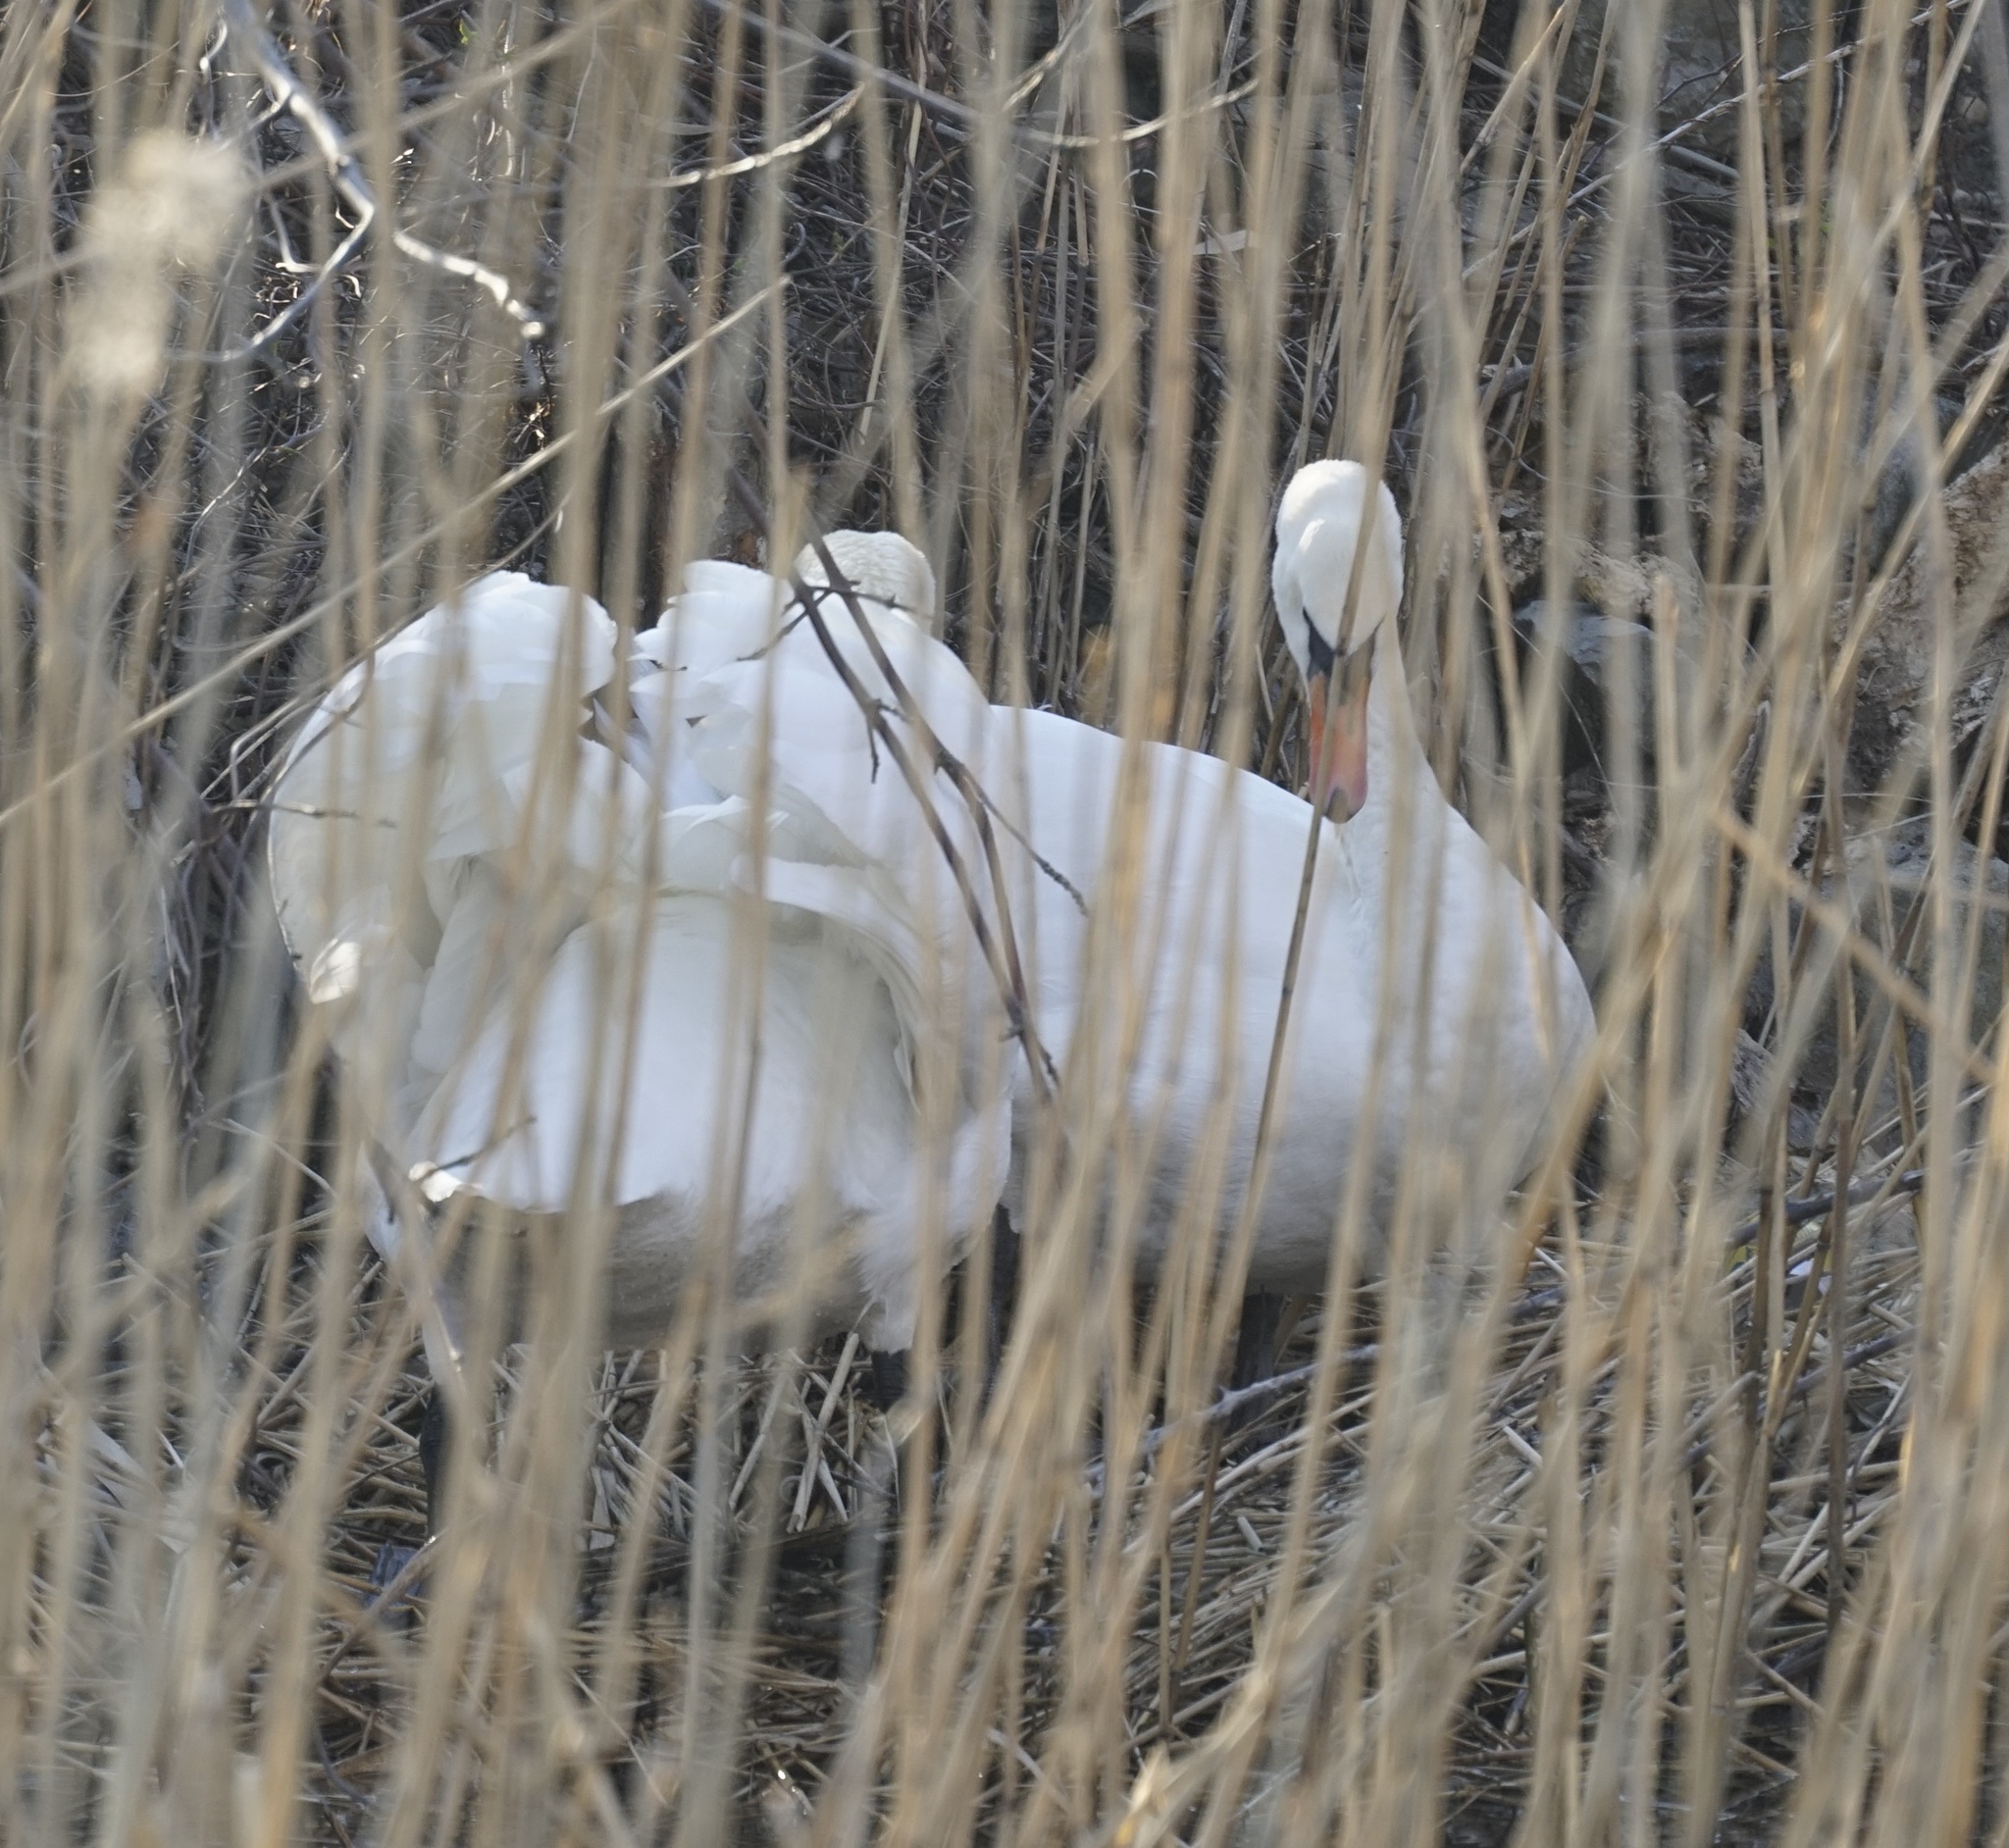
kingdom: Animalia
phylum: Chordata
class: Aves
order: Anseriformes
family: Anatidae
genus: Cygnus
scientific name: Cygnus olor
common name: Mute swan
